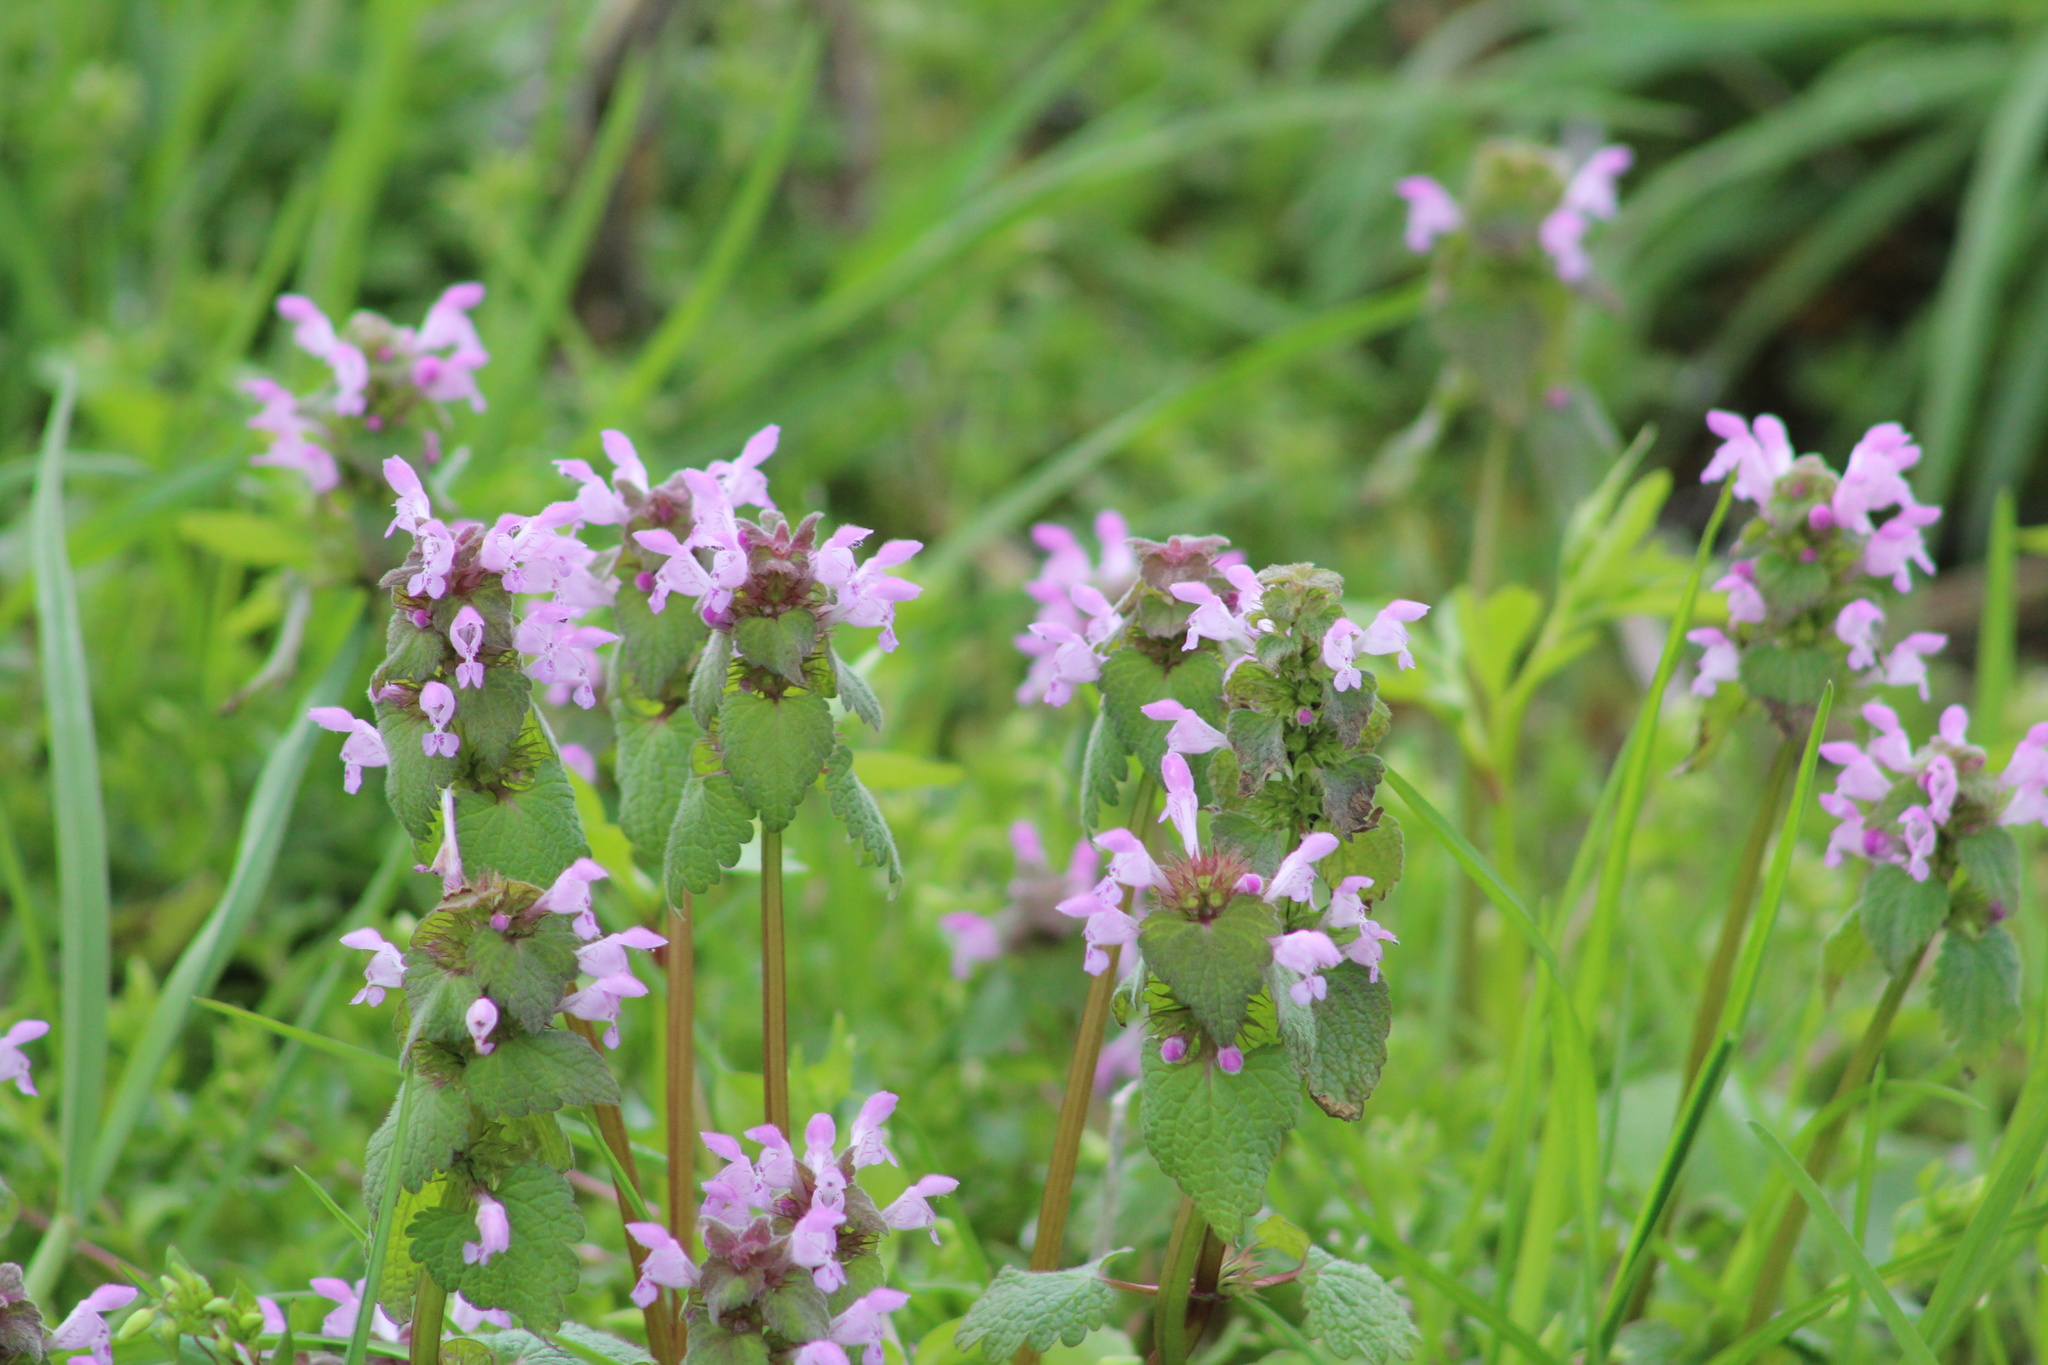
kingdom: Plantae
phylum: Tracheophyta
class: Magnoliopsida
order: Lamiales
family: Lamiaceae
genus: Lamium
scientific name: Lamium purpureum
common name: Red dead-nettle
